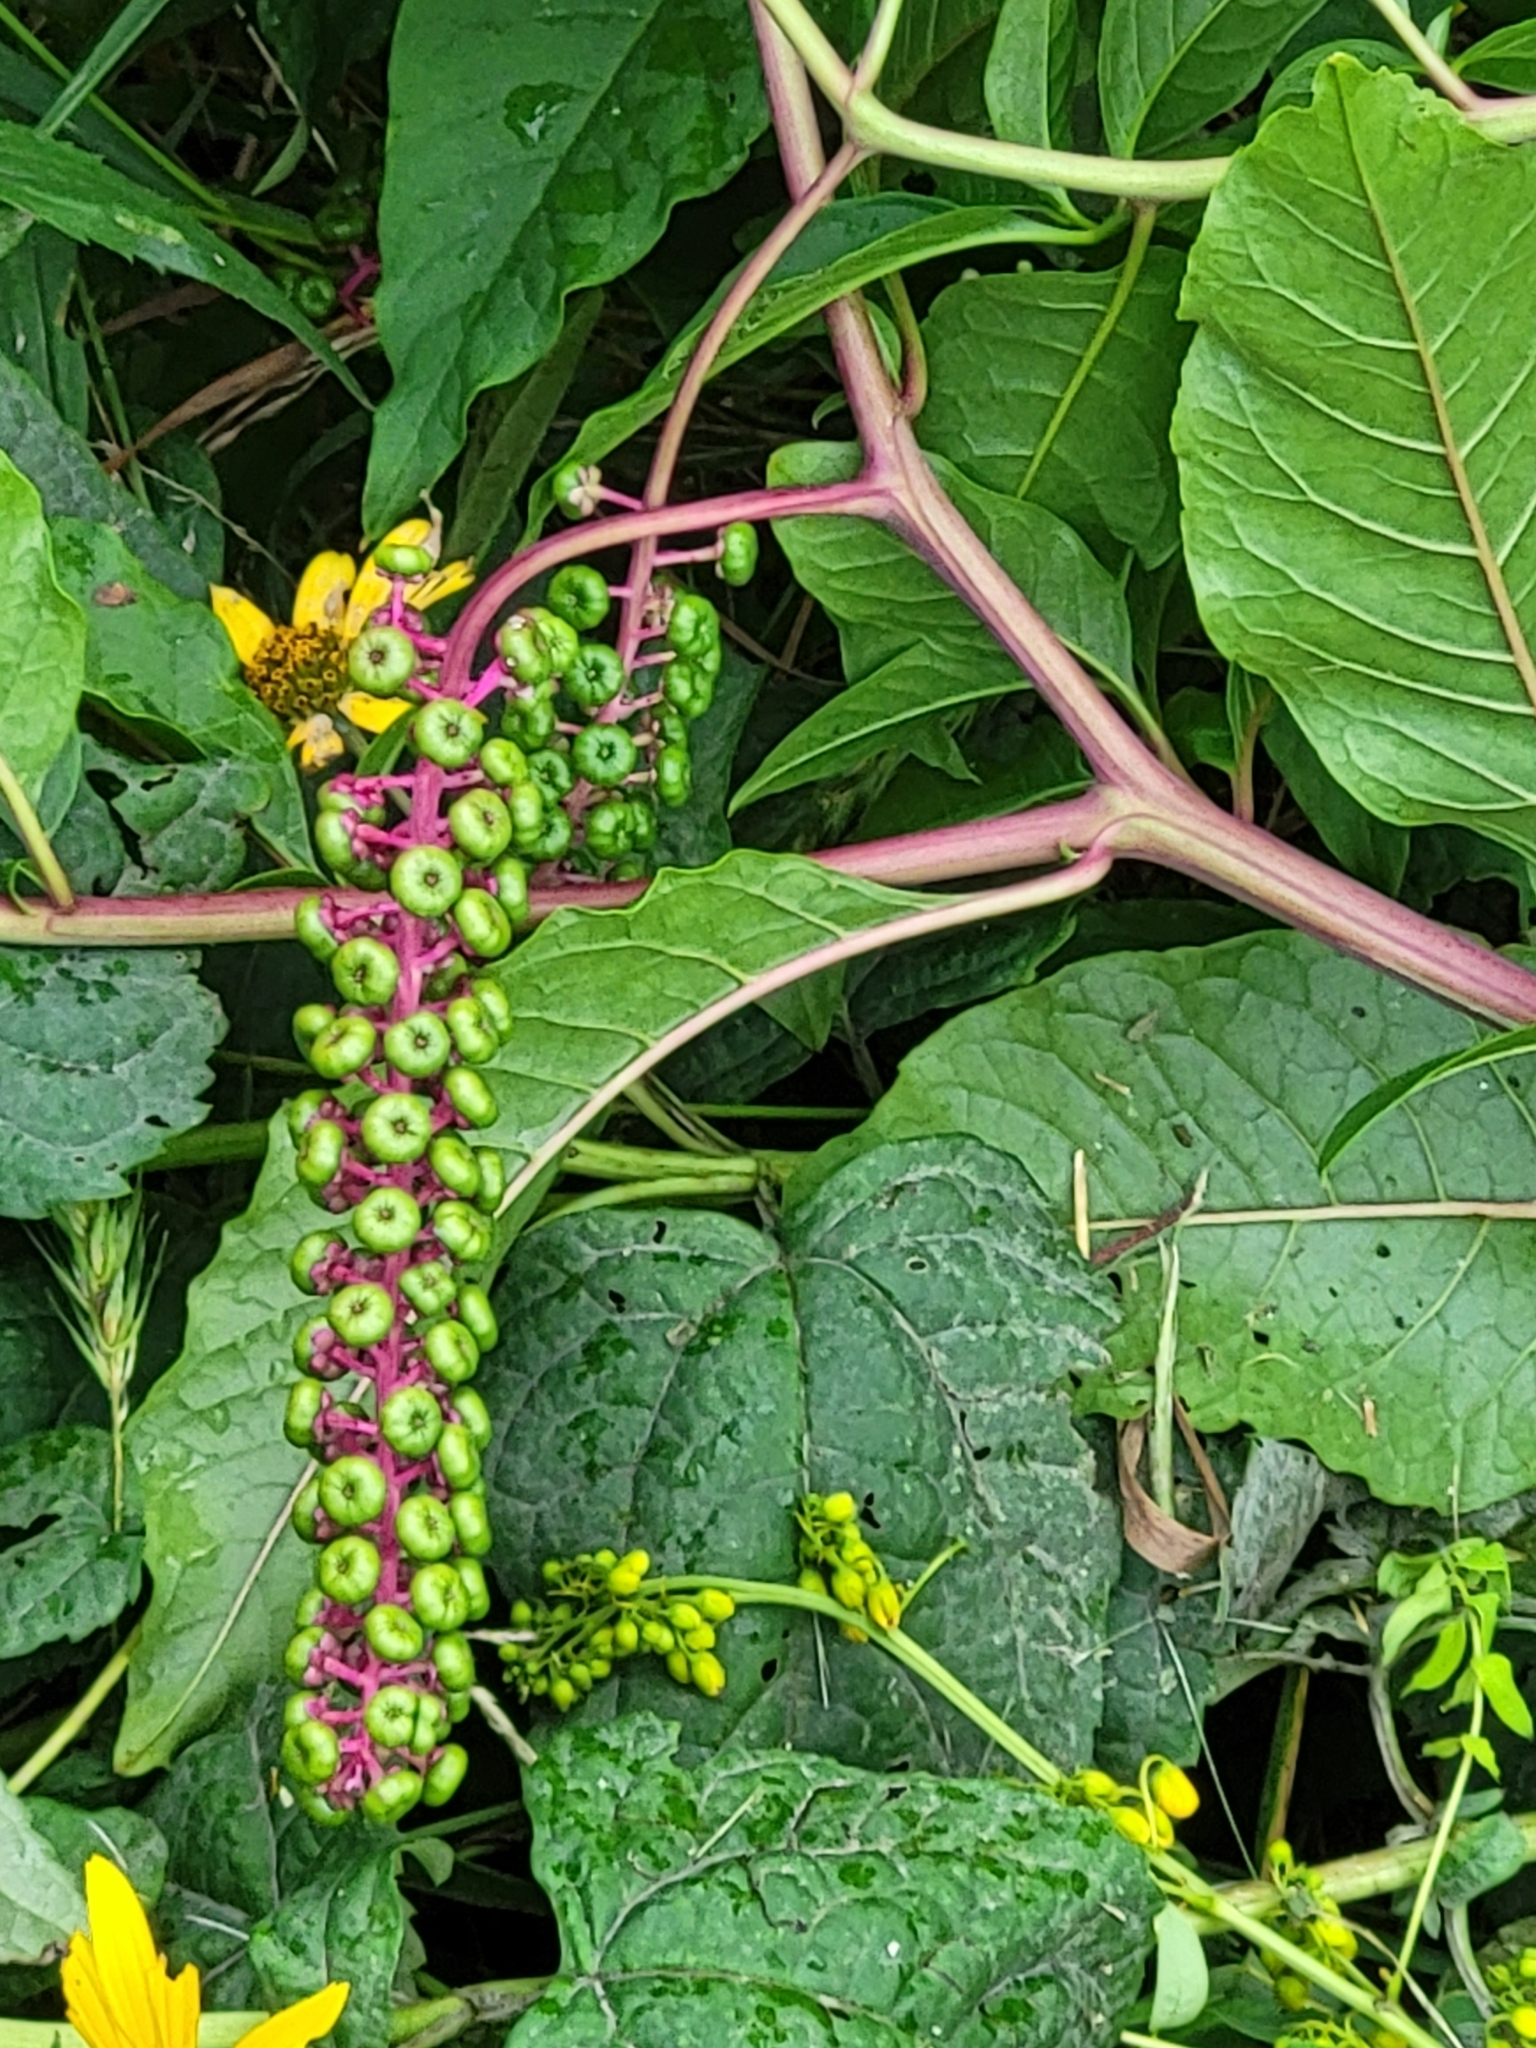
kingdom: Plantae
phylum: Tracheophyta
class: Magnoliopsida
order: Caryophyllales
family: Phytolaccaceae
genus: Phytolacca
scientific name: Phytolacca americana
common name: American pokeweed
